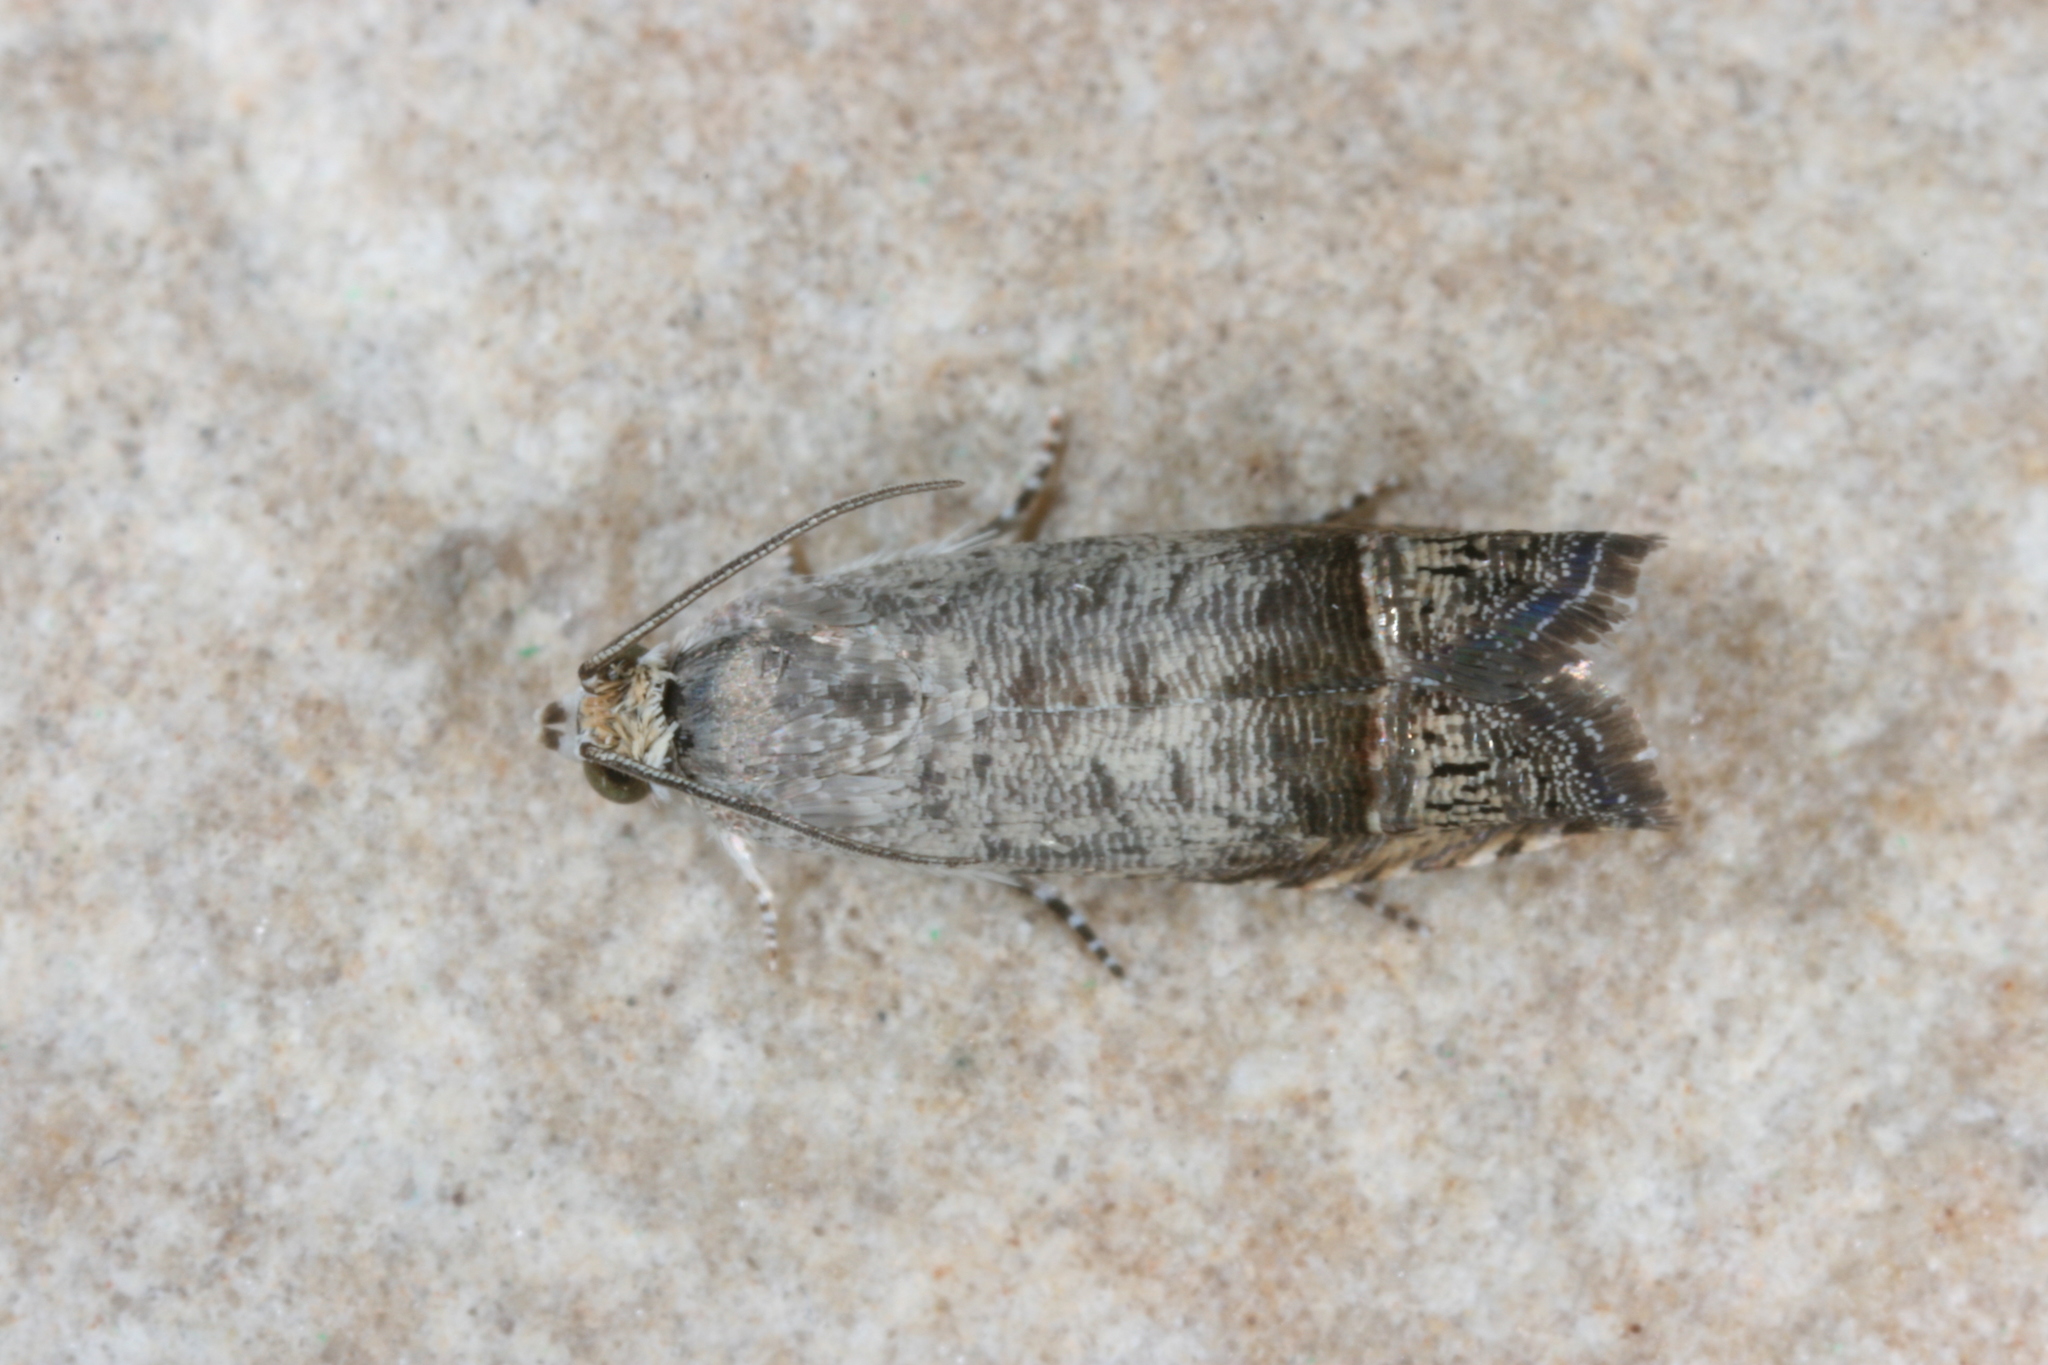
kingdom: Animalia
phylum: Arthropoda
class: Insecta
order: Lepidoptera
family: Tortricidae
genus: Ofatulena
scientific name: Ofatulena luminosa
